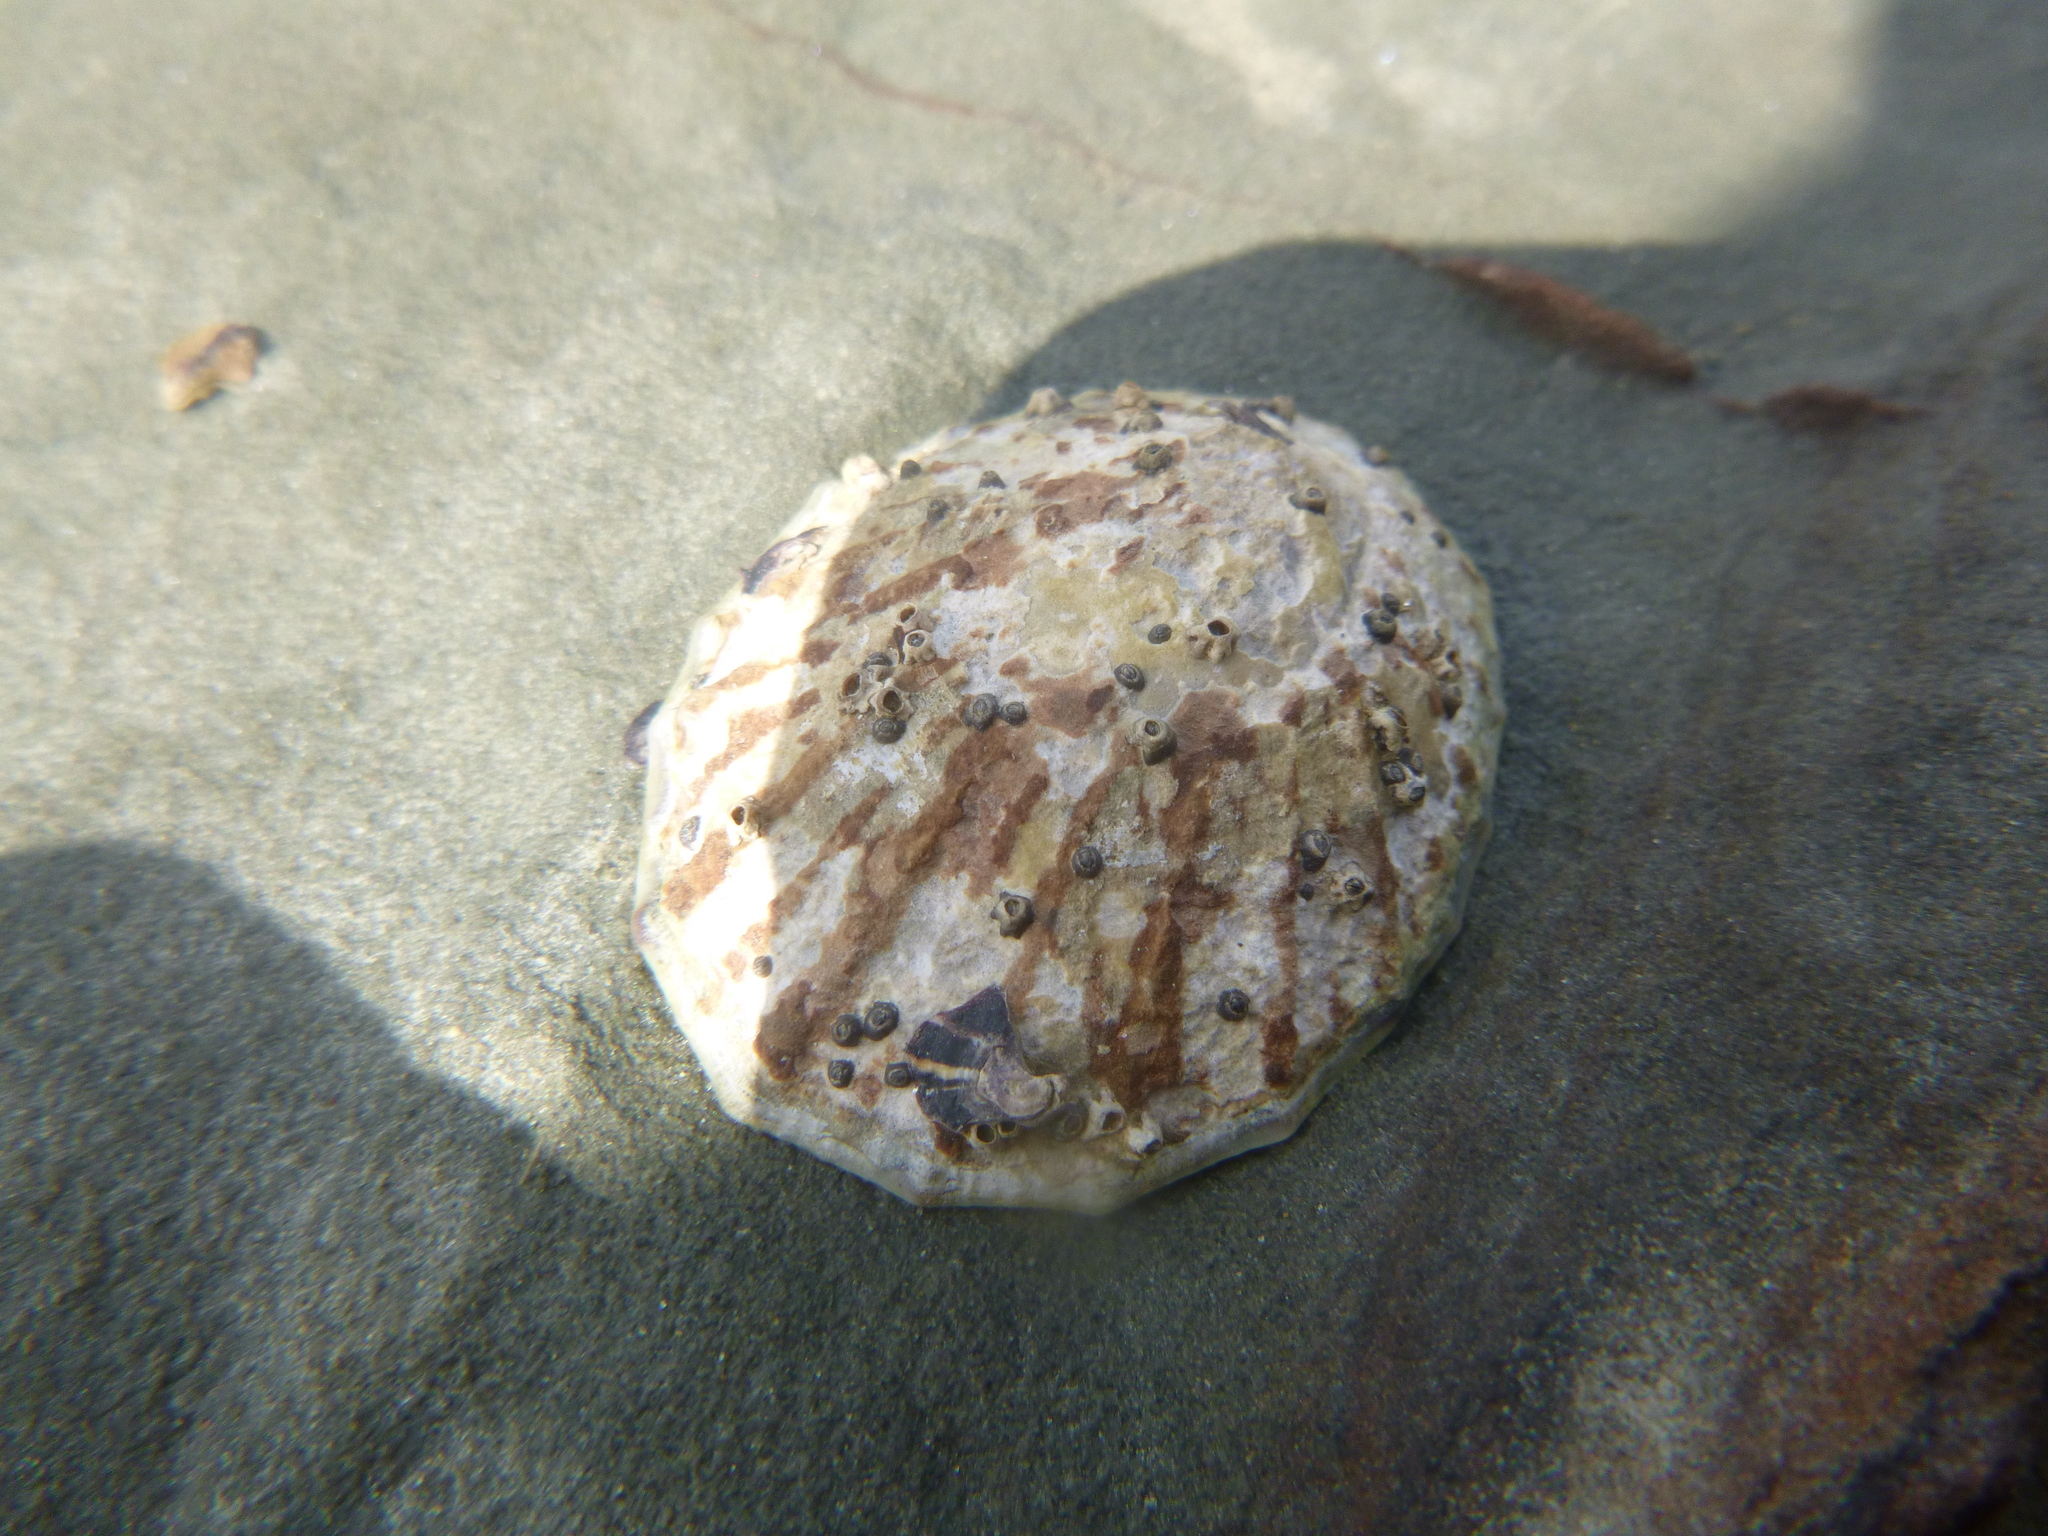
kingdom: Animalia
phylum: Mollusca
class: Gastropoda
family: Nacellidae
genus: Cellana
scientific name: Cellana radians
